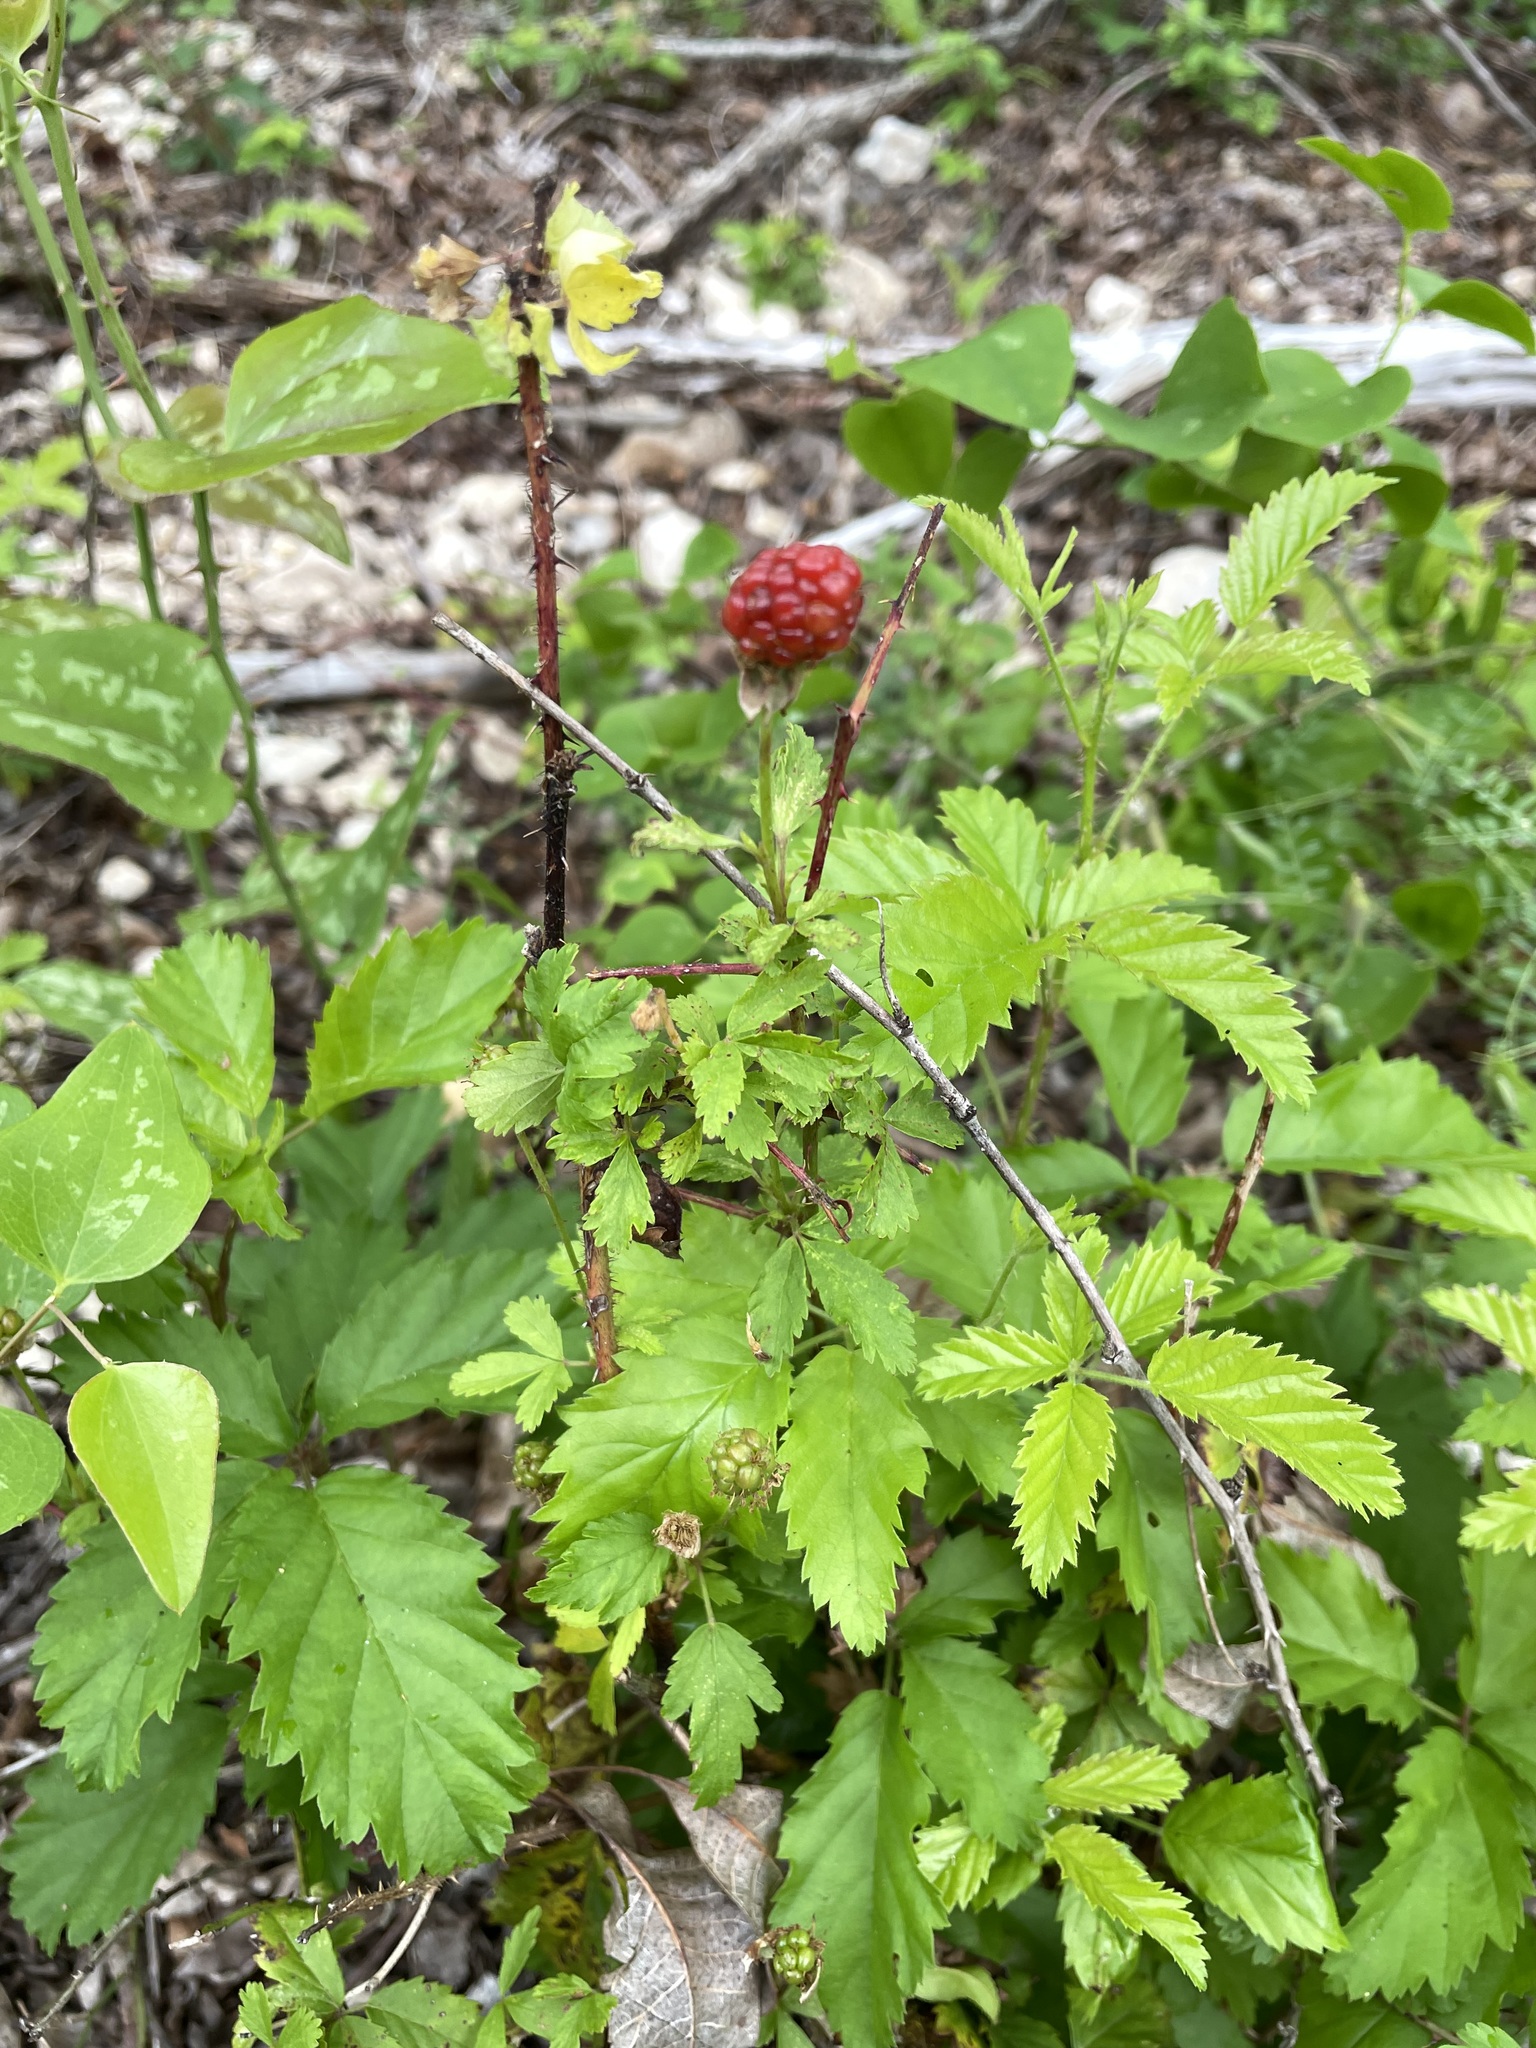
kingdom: Plantae
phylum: Tracheophyta
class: Magnoliopsida
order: Rosales
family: Rosaceae
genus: Rubus
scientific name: Rubus trivialis
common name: Southern dewberry
